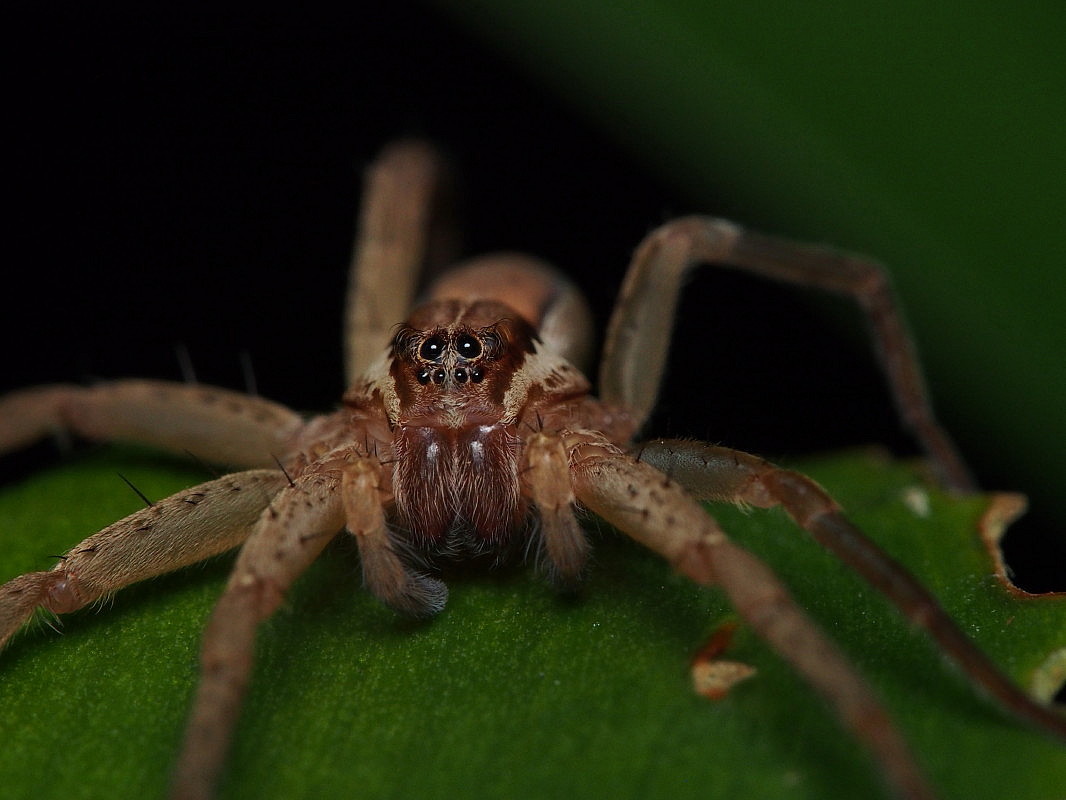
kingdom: Animalia
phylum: Arthropoda
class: Arachnida
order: Araneae
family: Pisauridae
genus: Dolomedes
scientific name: Dolomedes minor
